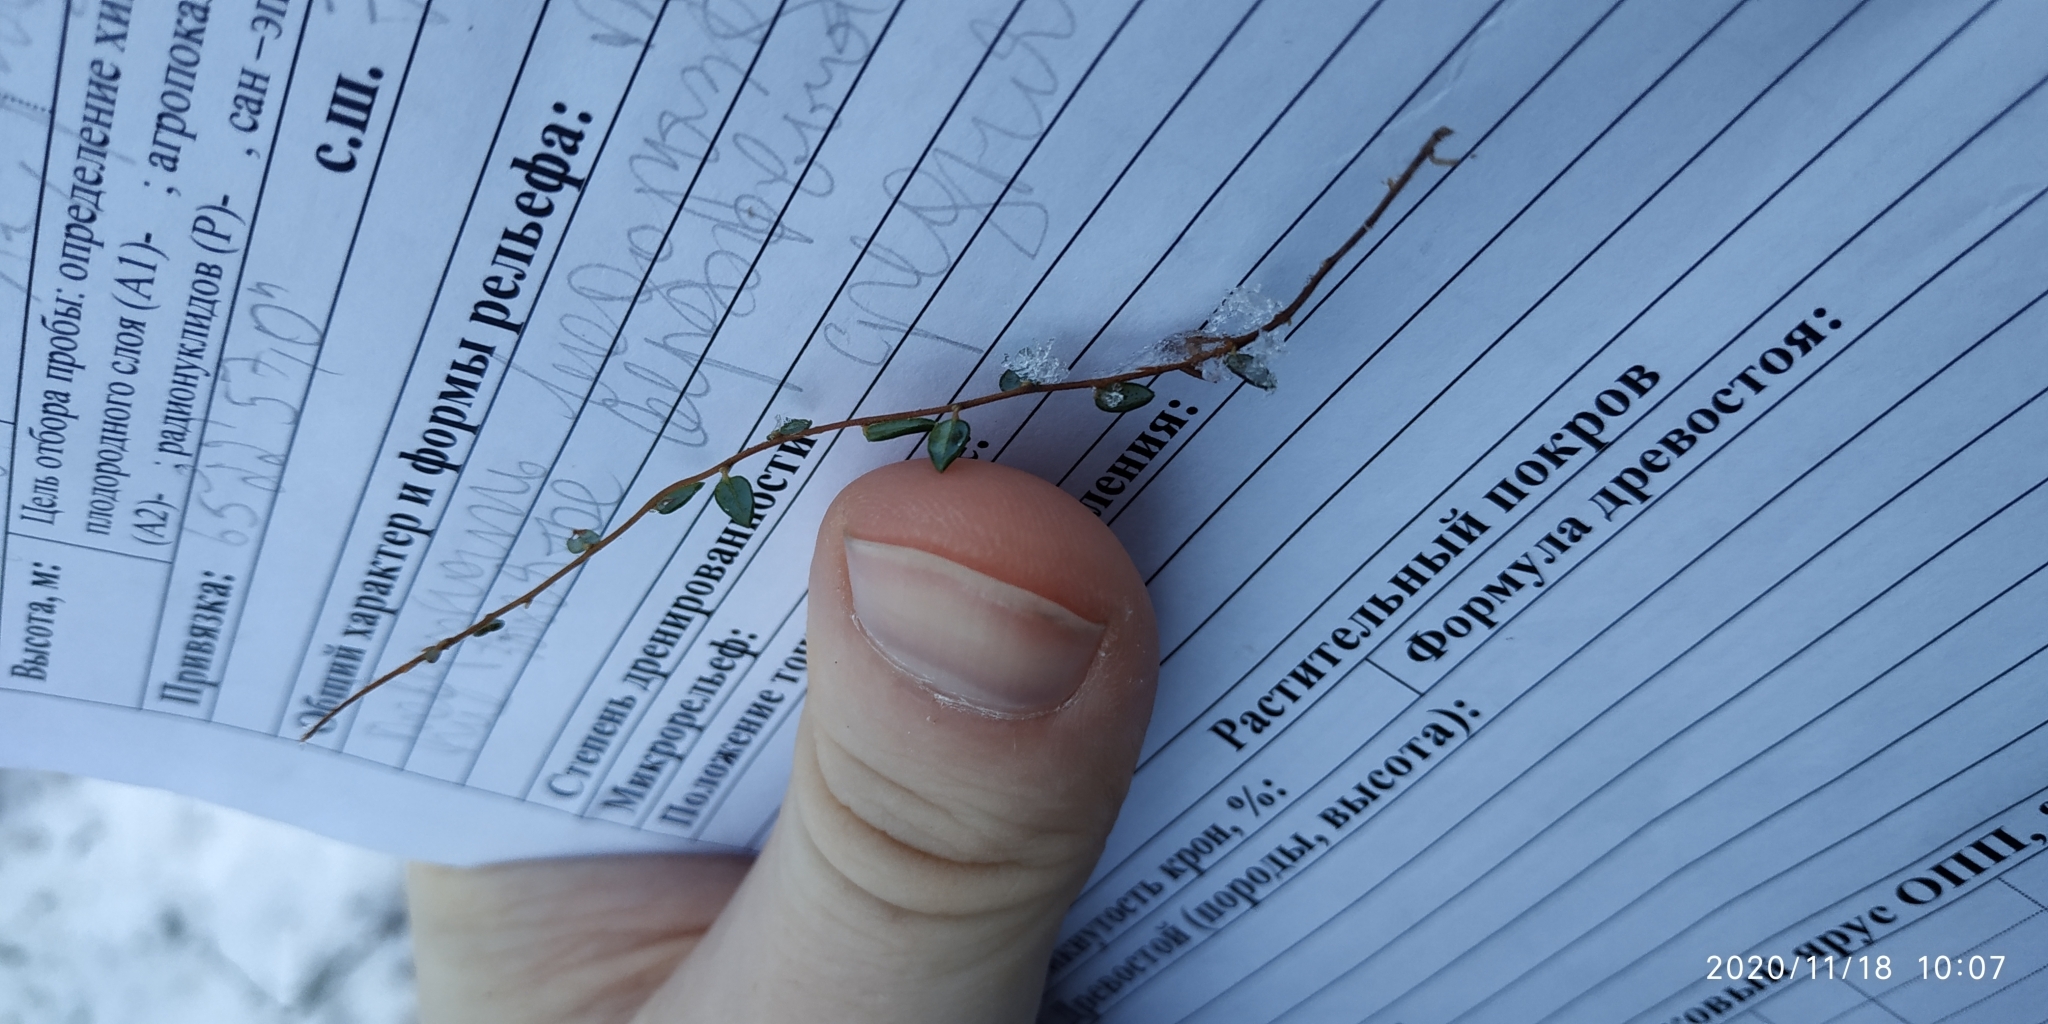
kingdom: Plantae
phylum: Tracheophyta
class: Magnoliopsida
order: Ericales
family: Ericaceae
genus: Vaccinium
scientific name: Vaccinium oxycoccos
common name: Cranberry
